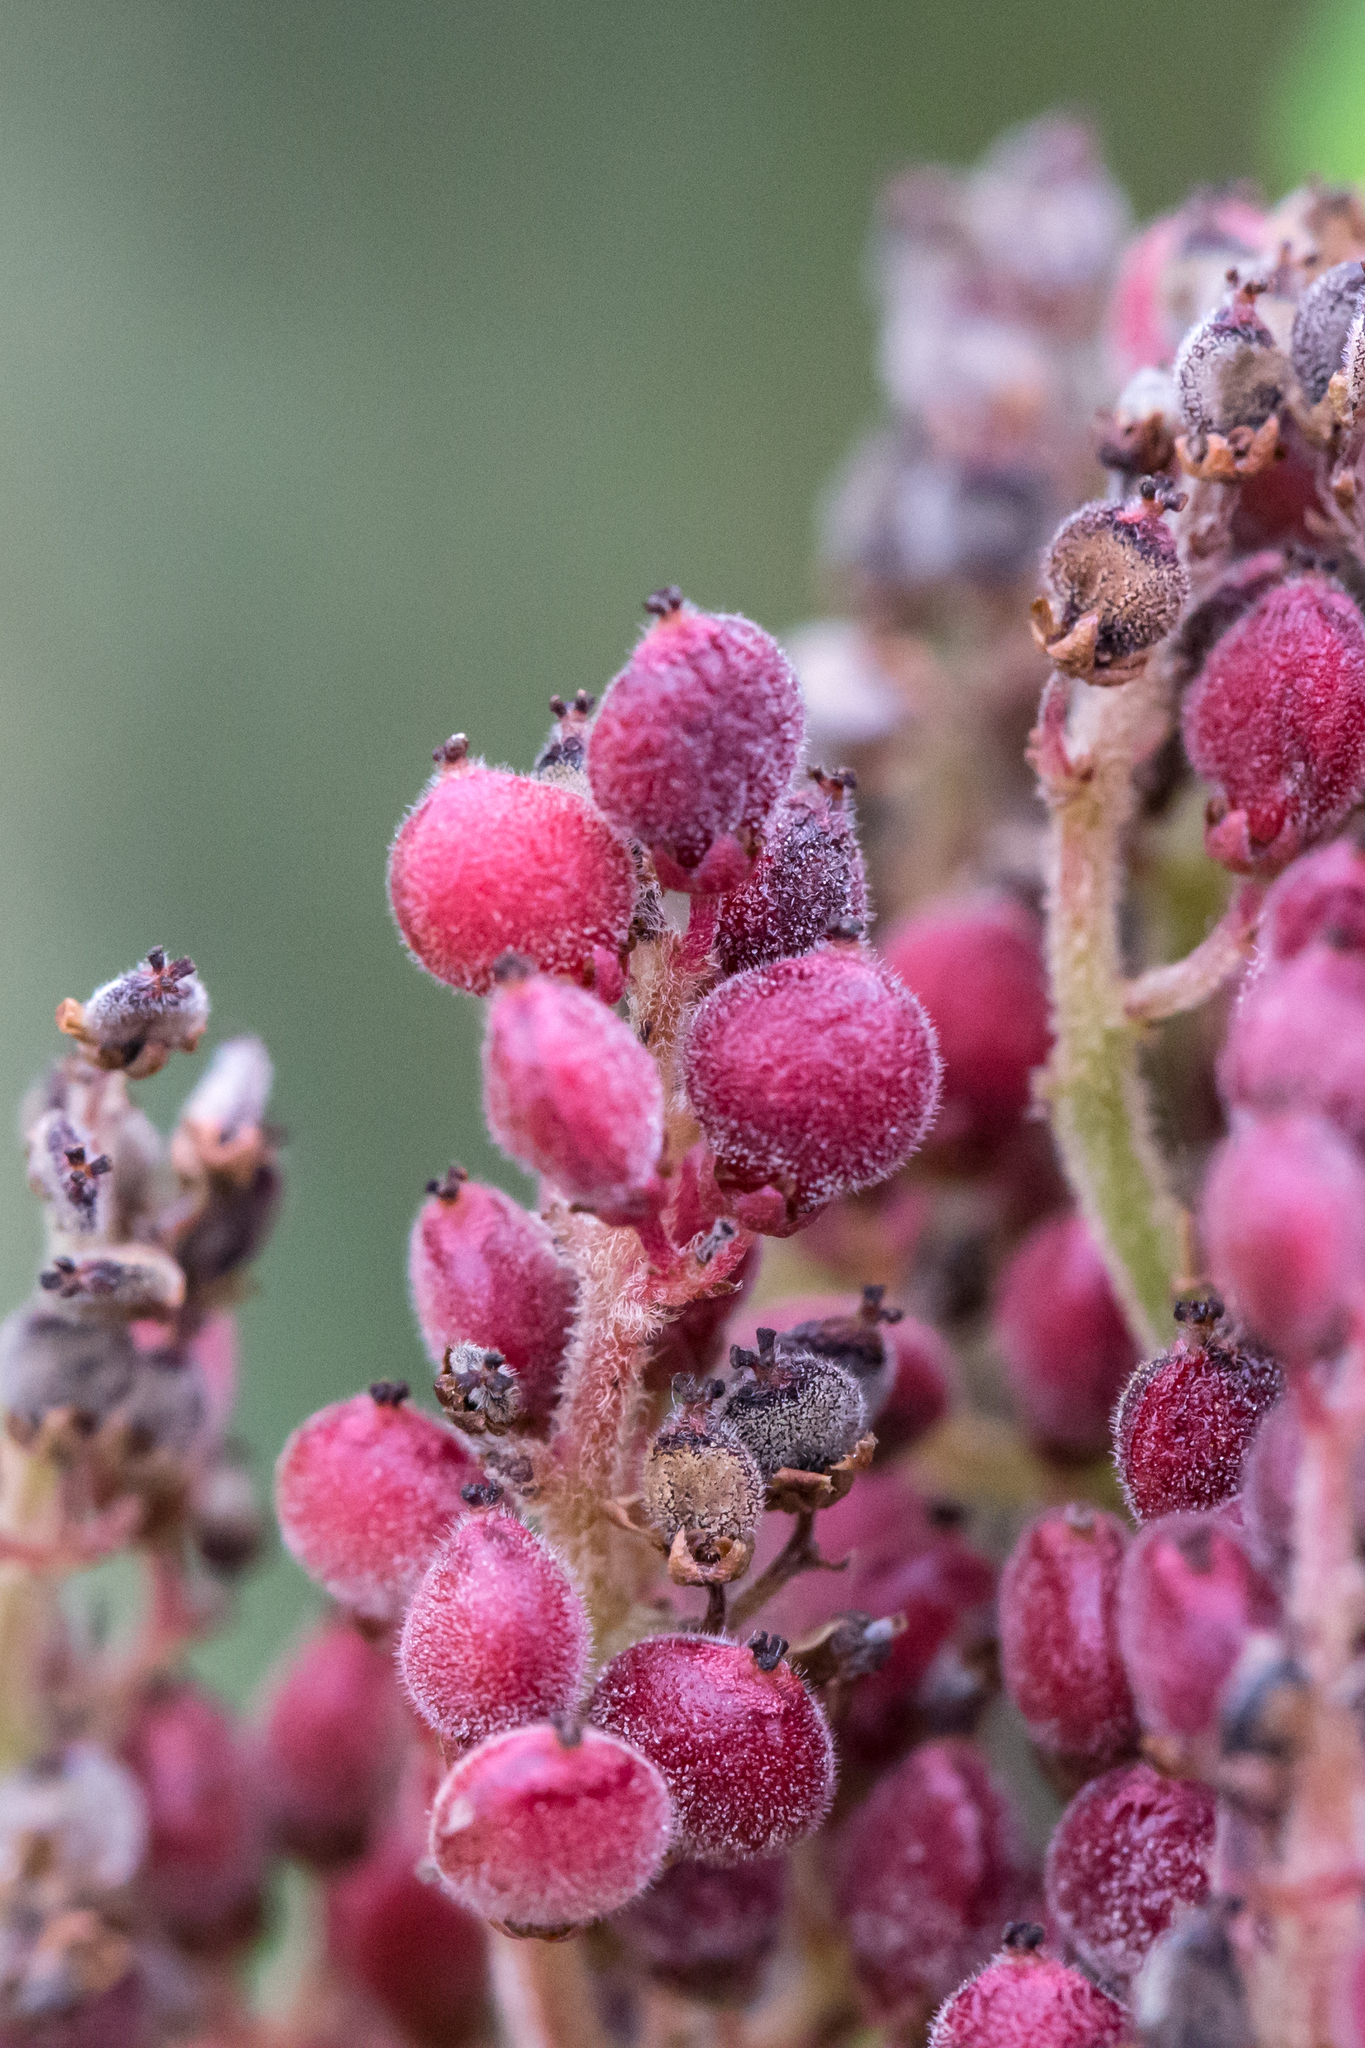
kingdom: Plantae
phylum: Tracheophyta
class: Magnoliopsida
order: Sapindales
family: Anacardiaceae
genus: Rhus
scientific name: Rhus copallina
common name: Shining sumac
